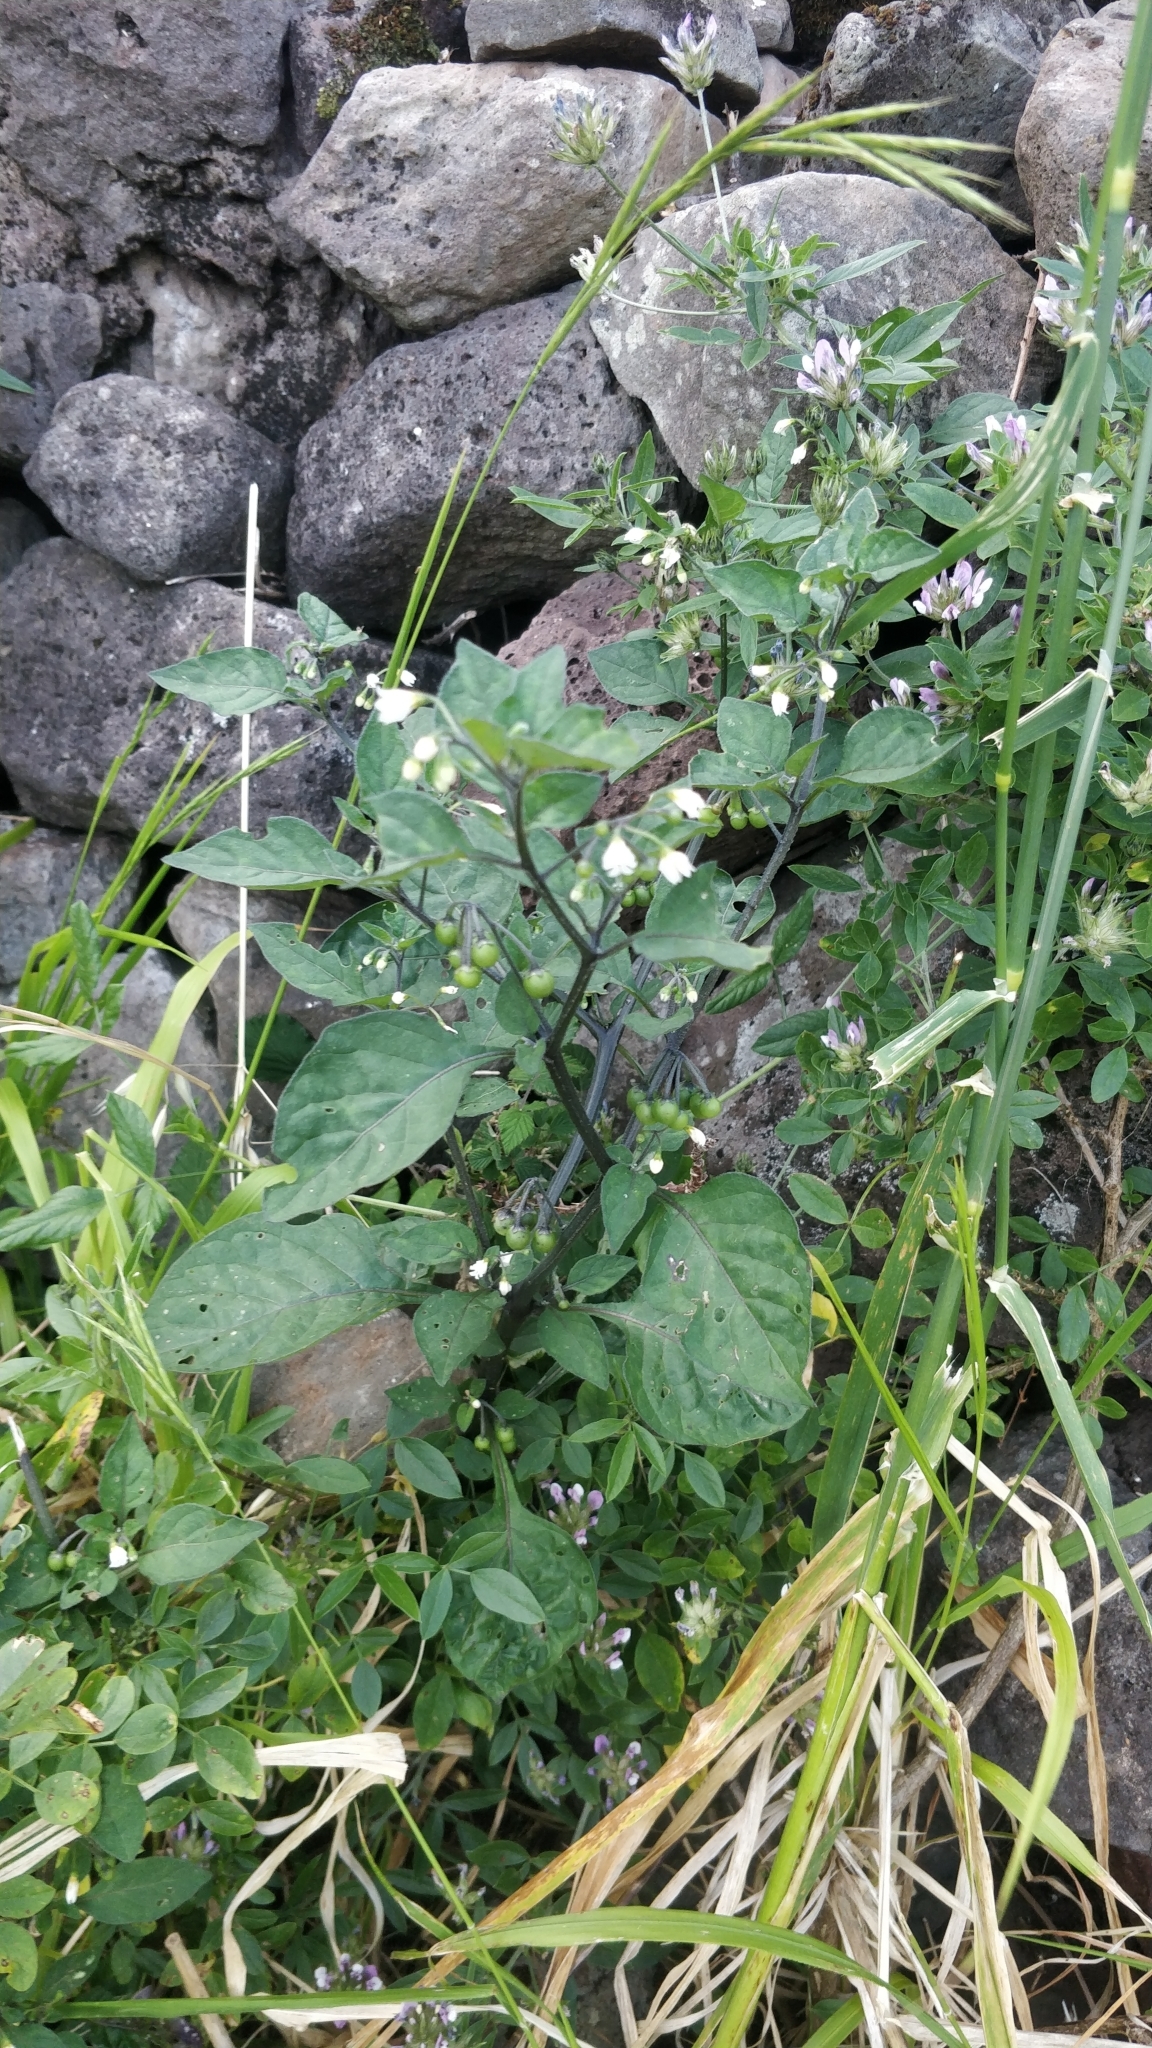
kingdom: Plantae
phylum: Tracheophyta
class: Magnoliopsida
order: Solanales
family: Solanaceae
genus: Solanum
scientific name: Solanum nigrum
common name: Black nightshade
